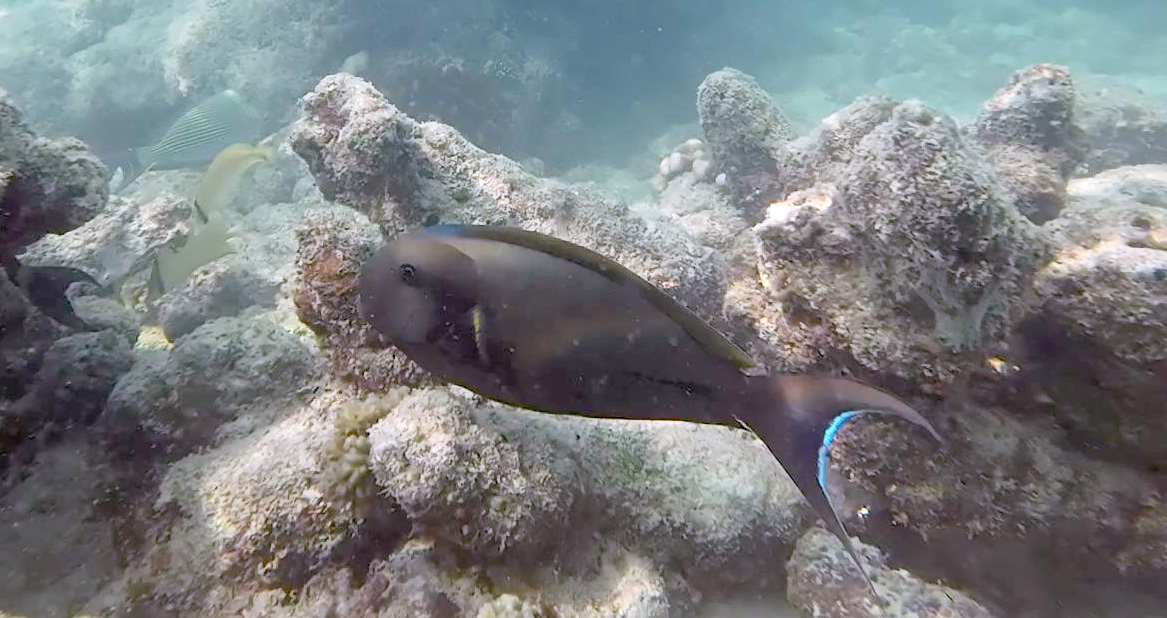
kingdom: Animalia
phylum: Chordata
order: Perciformes
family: Acanthuridae
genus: Acanthurus
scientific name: Acanthurus nigricauda
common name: Black-barred surgeonfish
